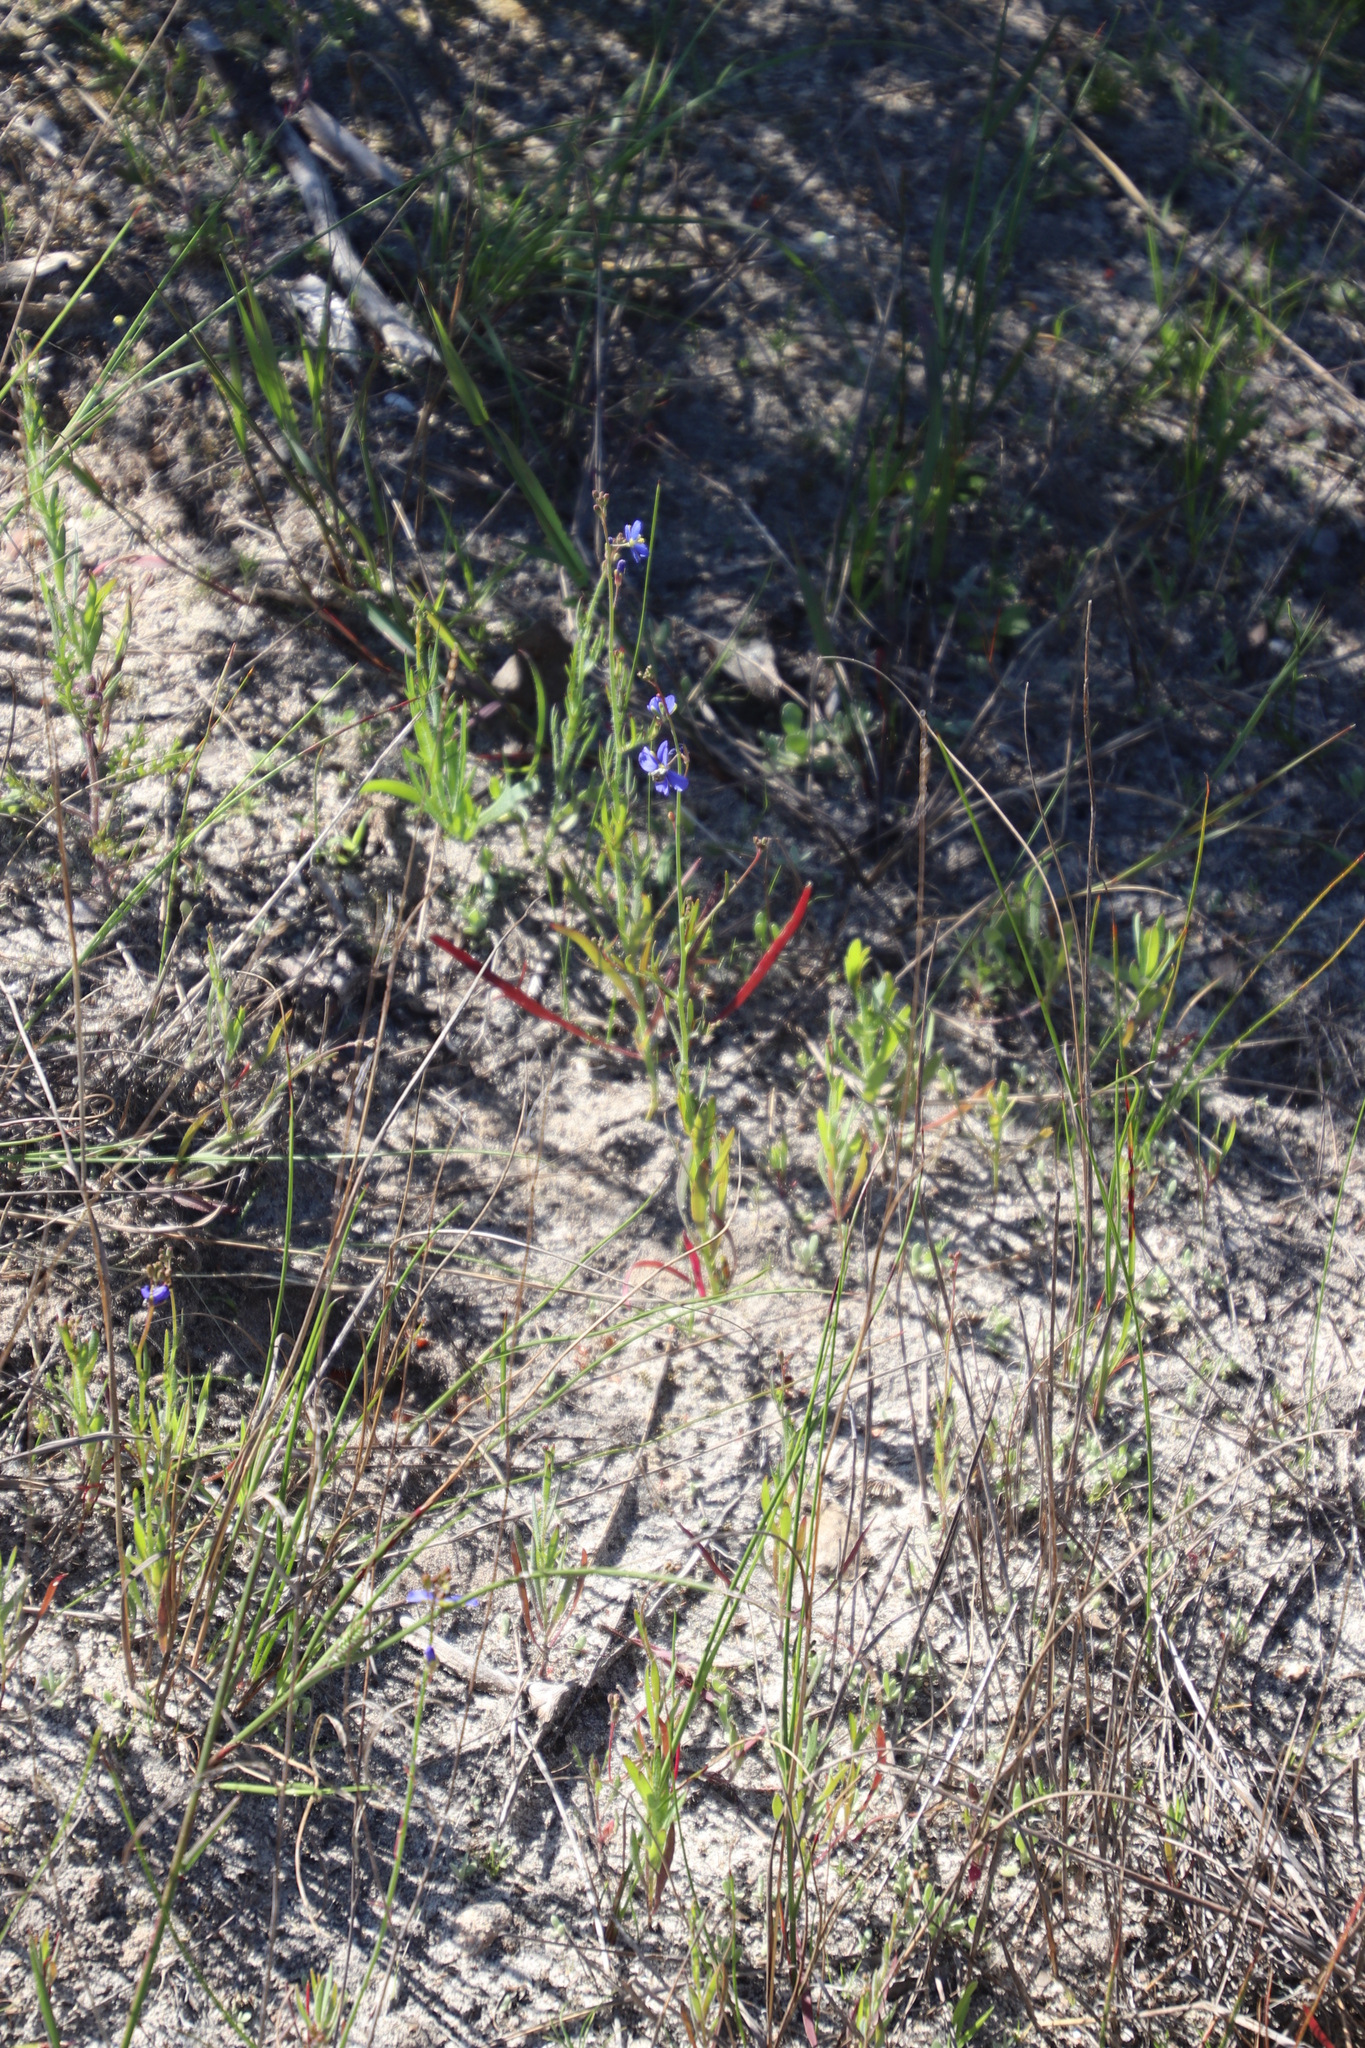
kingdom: Plantae
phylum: Tracheophyta
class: Magnoliopsida
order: Brassicales
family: Brassicaceae
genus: Heliophila
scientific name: Heliophila africana
